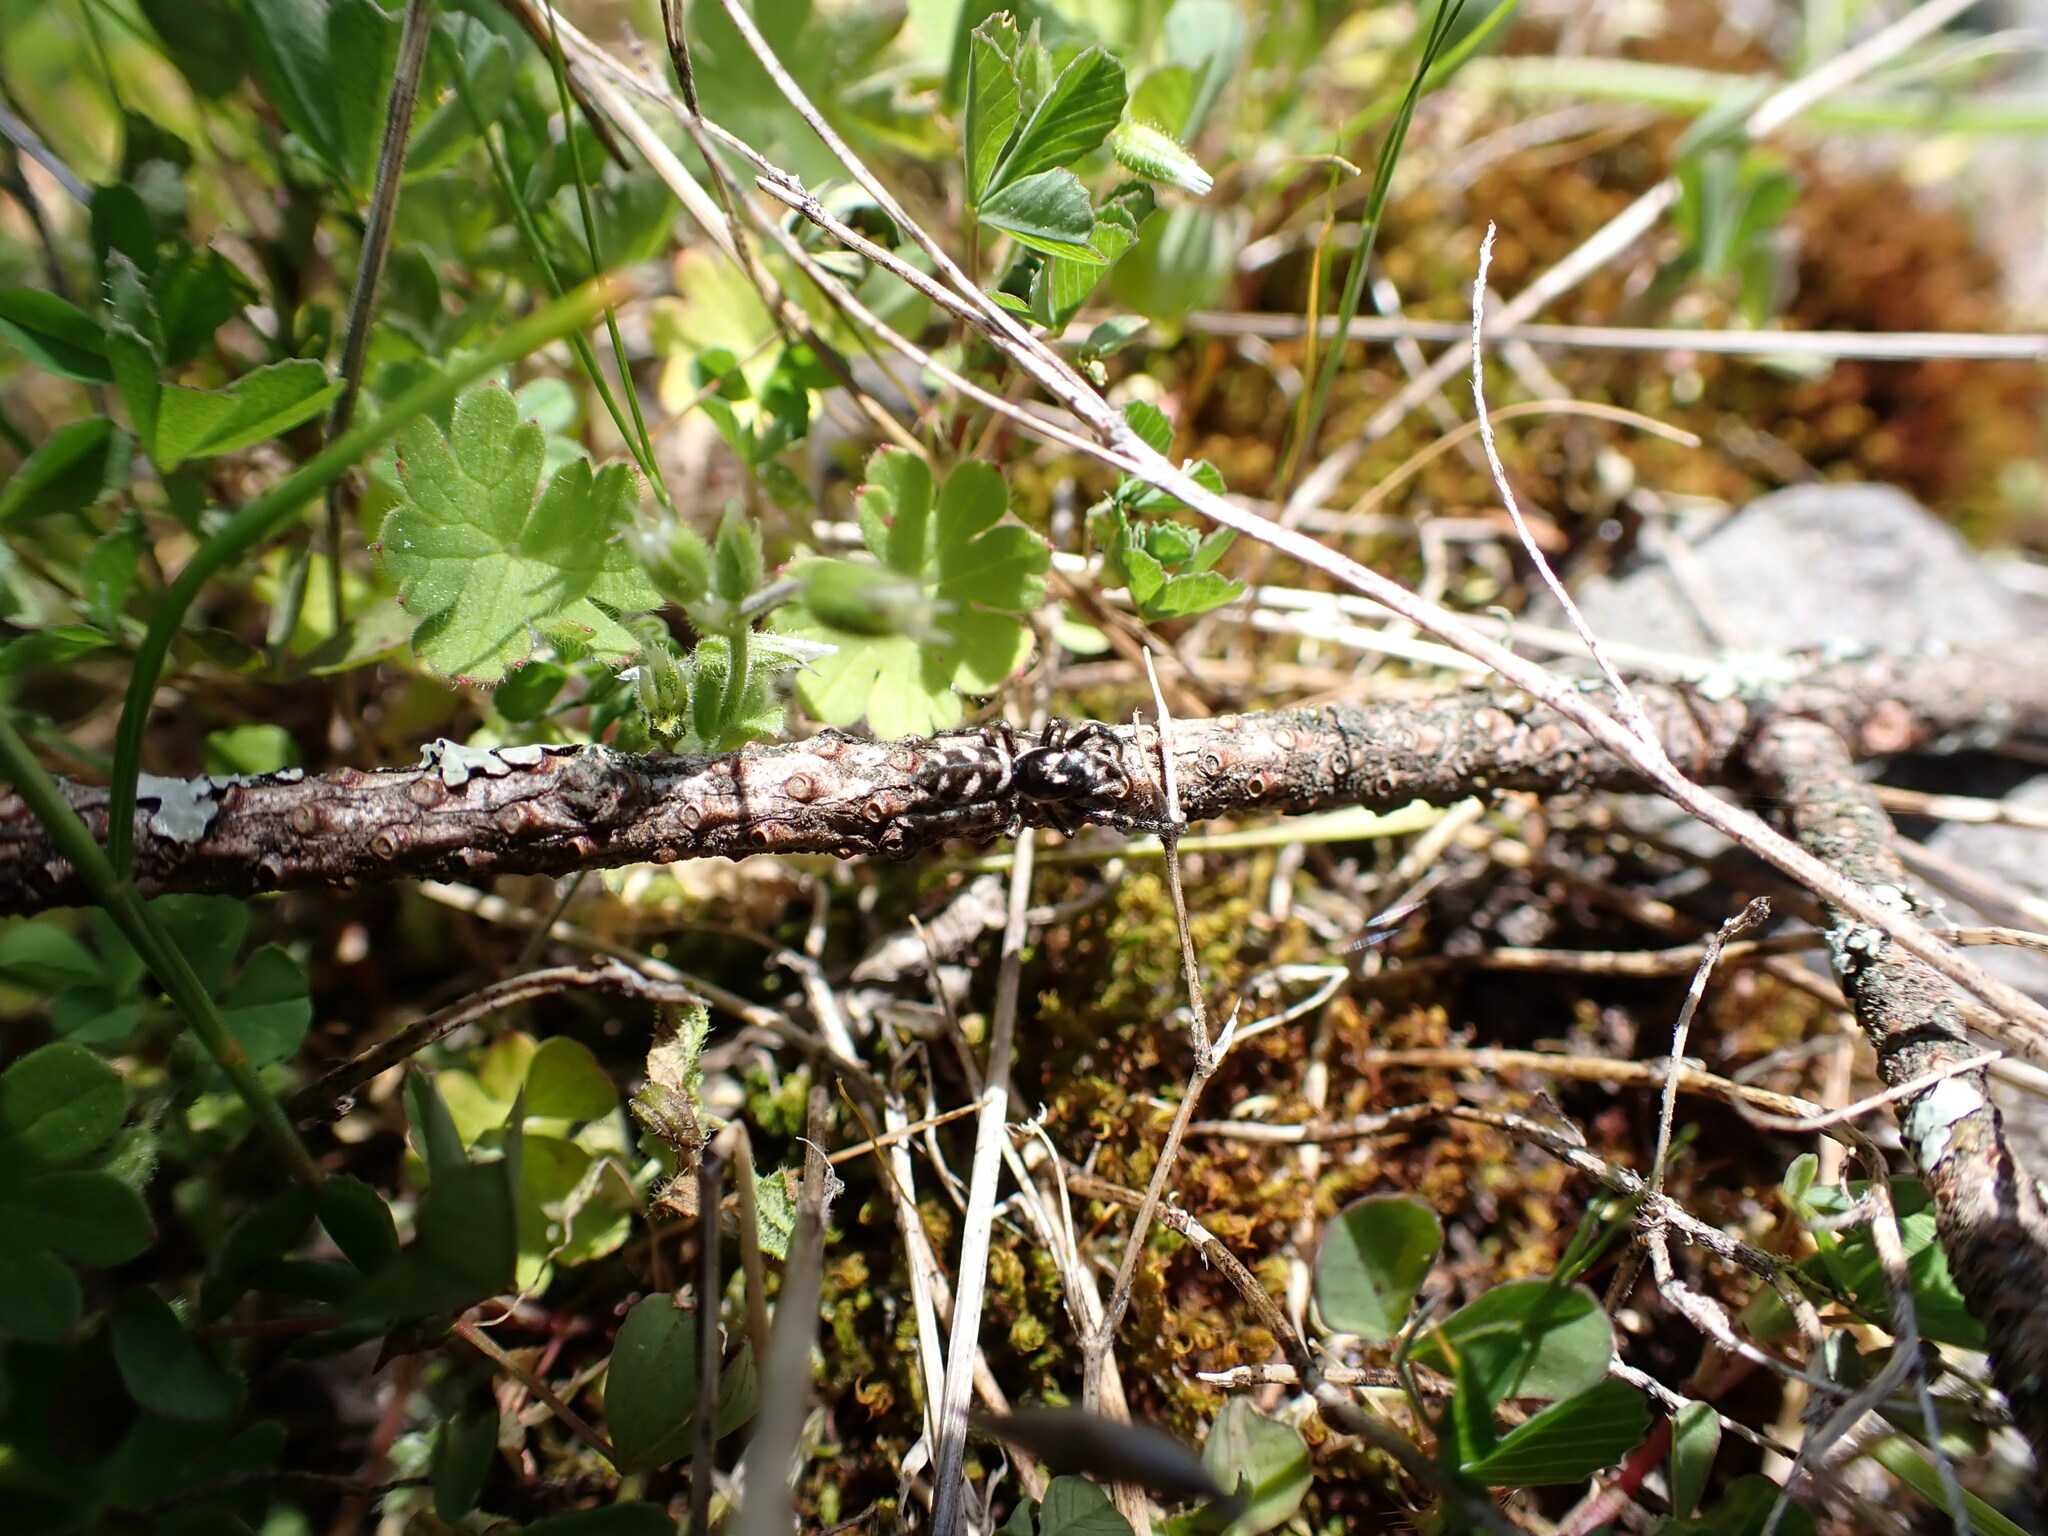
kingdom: Animalia
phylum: Arthropoda
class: Arachnida
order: Araneae
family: Salticidae
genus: Salticus
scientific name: Salticus scenicus
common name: Zebra jumper
